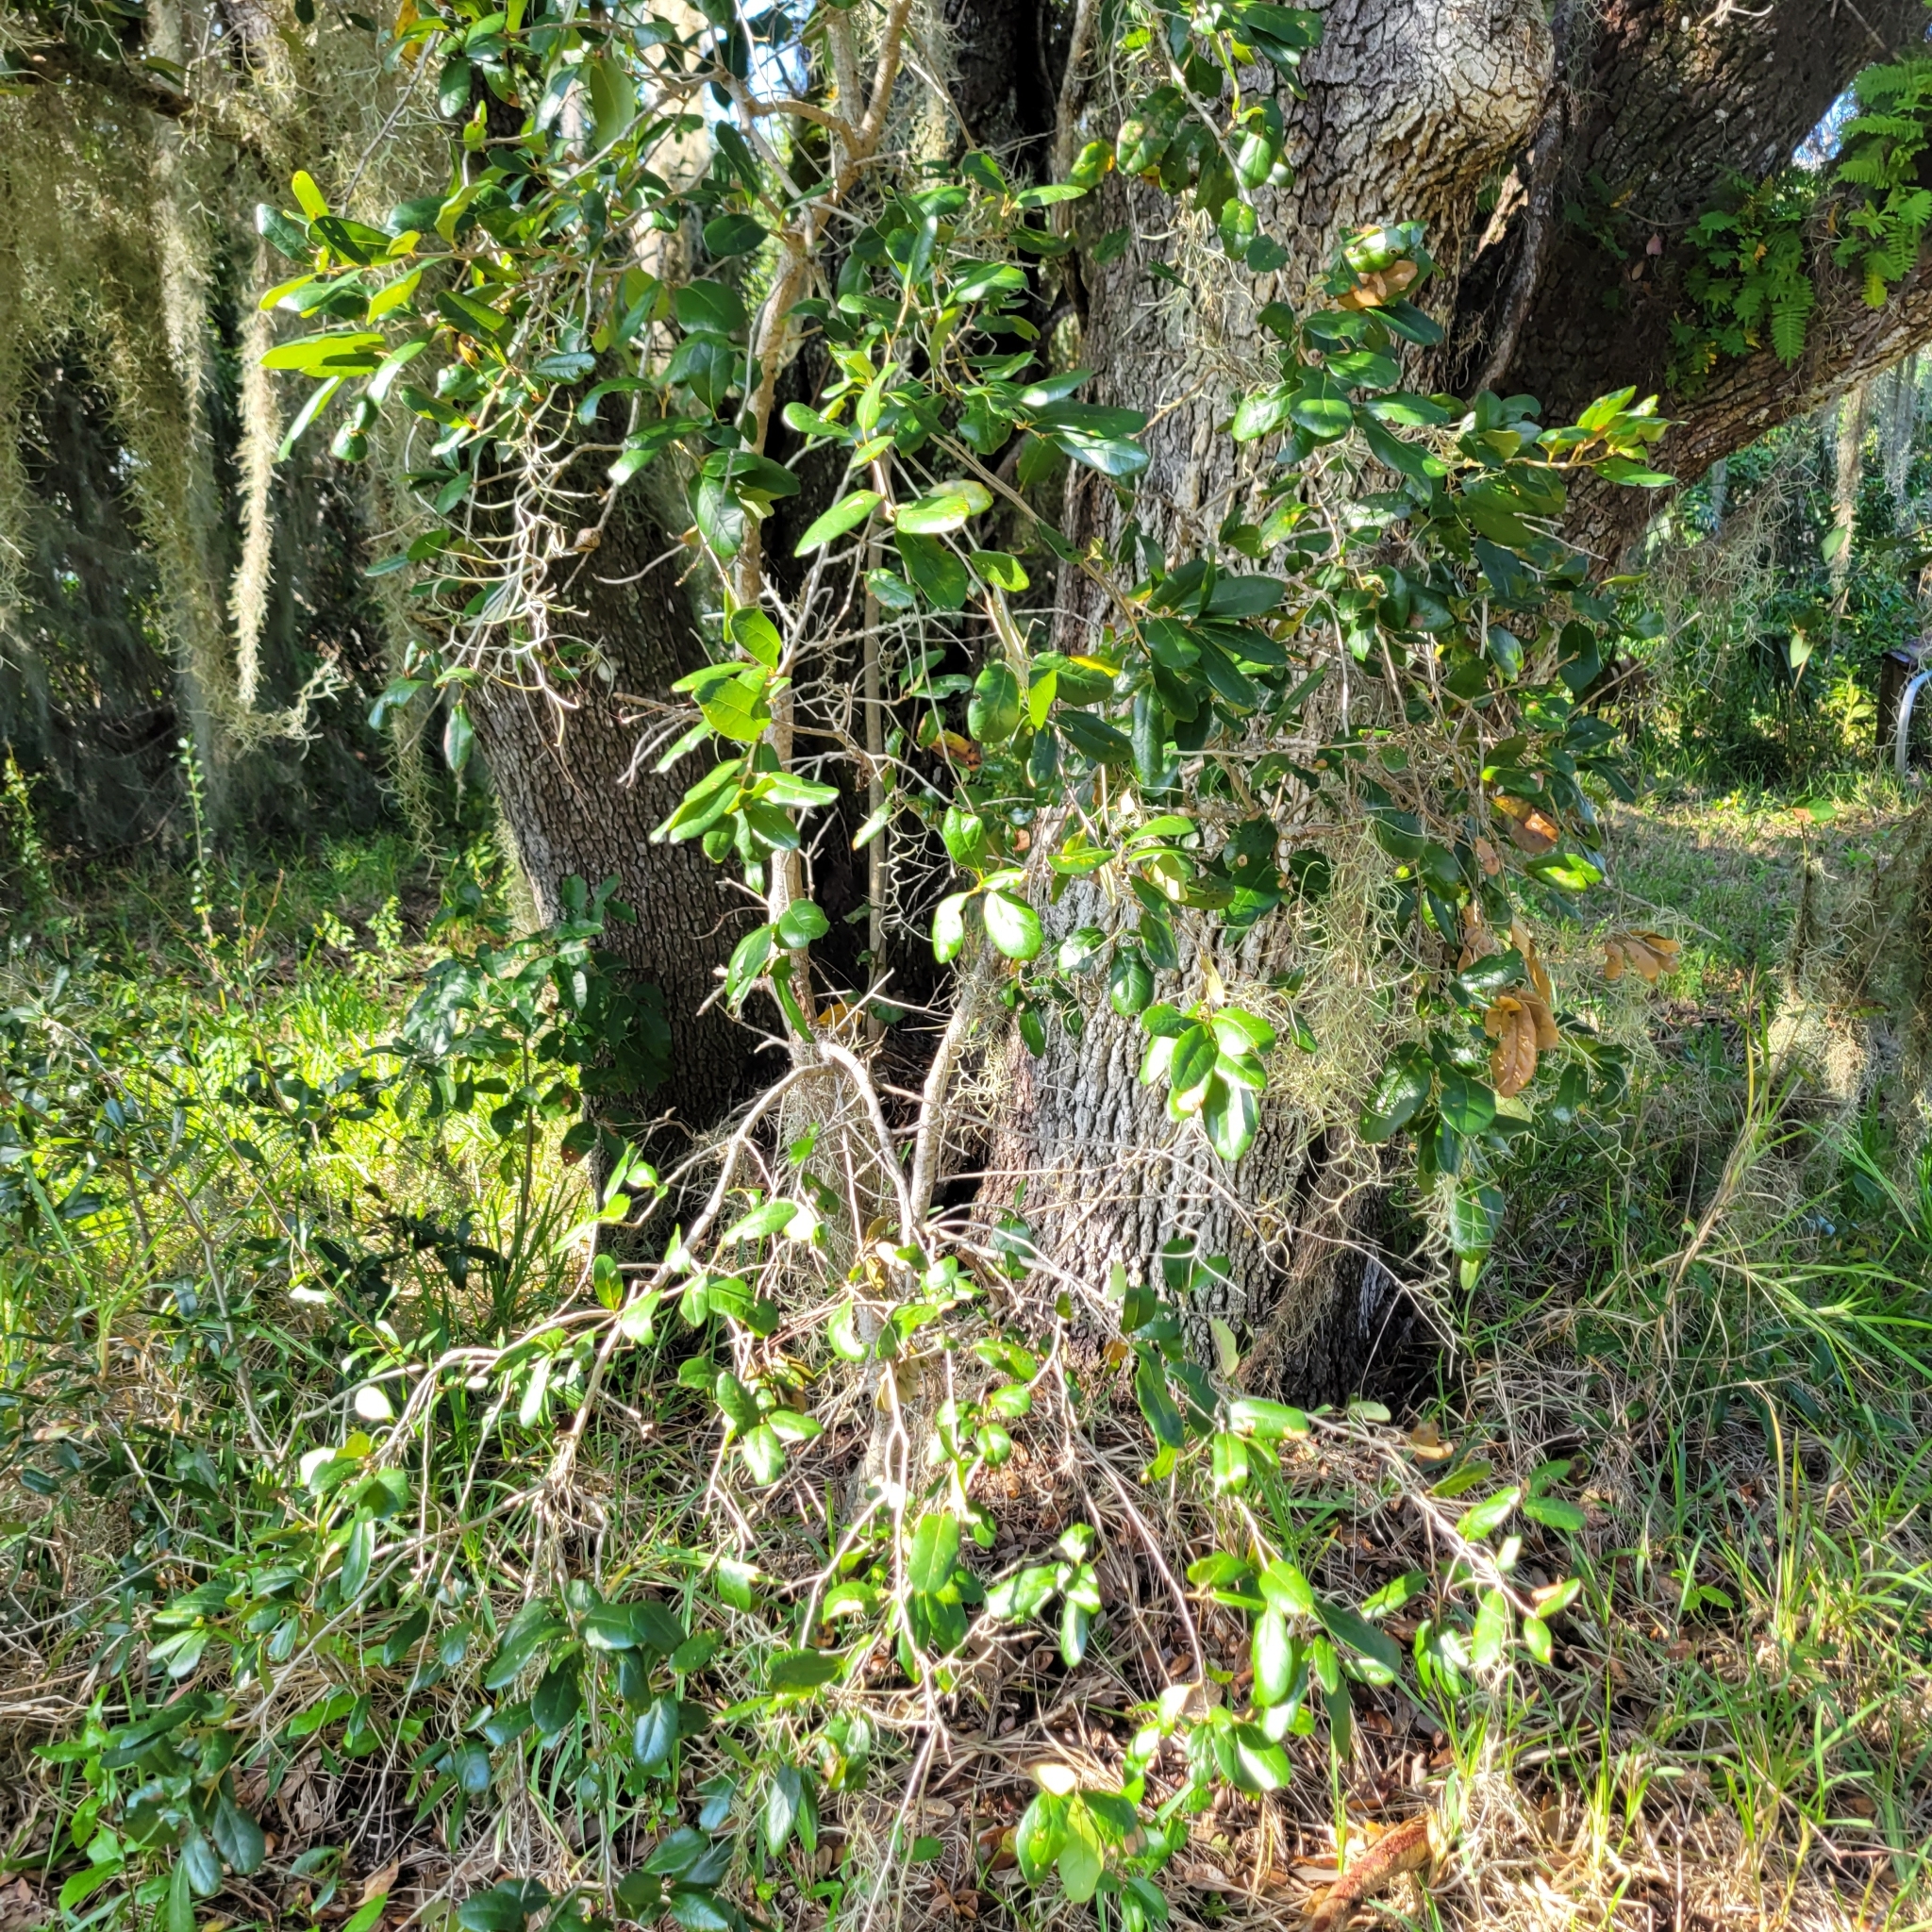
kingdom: Plantae
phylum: Tracheophyta
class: Magnoliopsida
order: Fagales
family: Fagaceae
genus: Quercus
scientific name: Quercus virginiana
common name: Southern live oak
